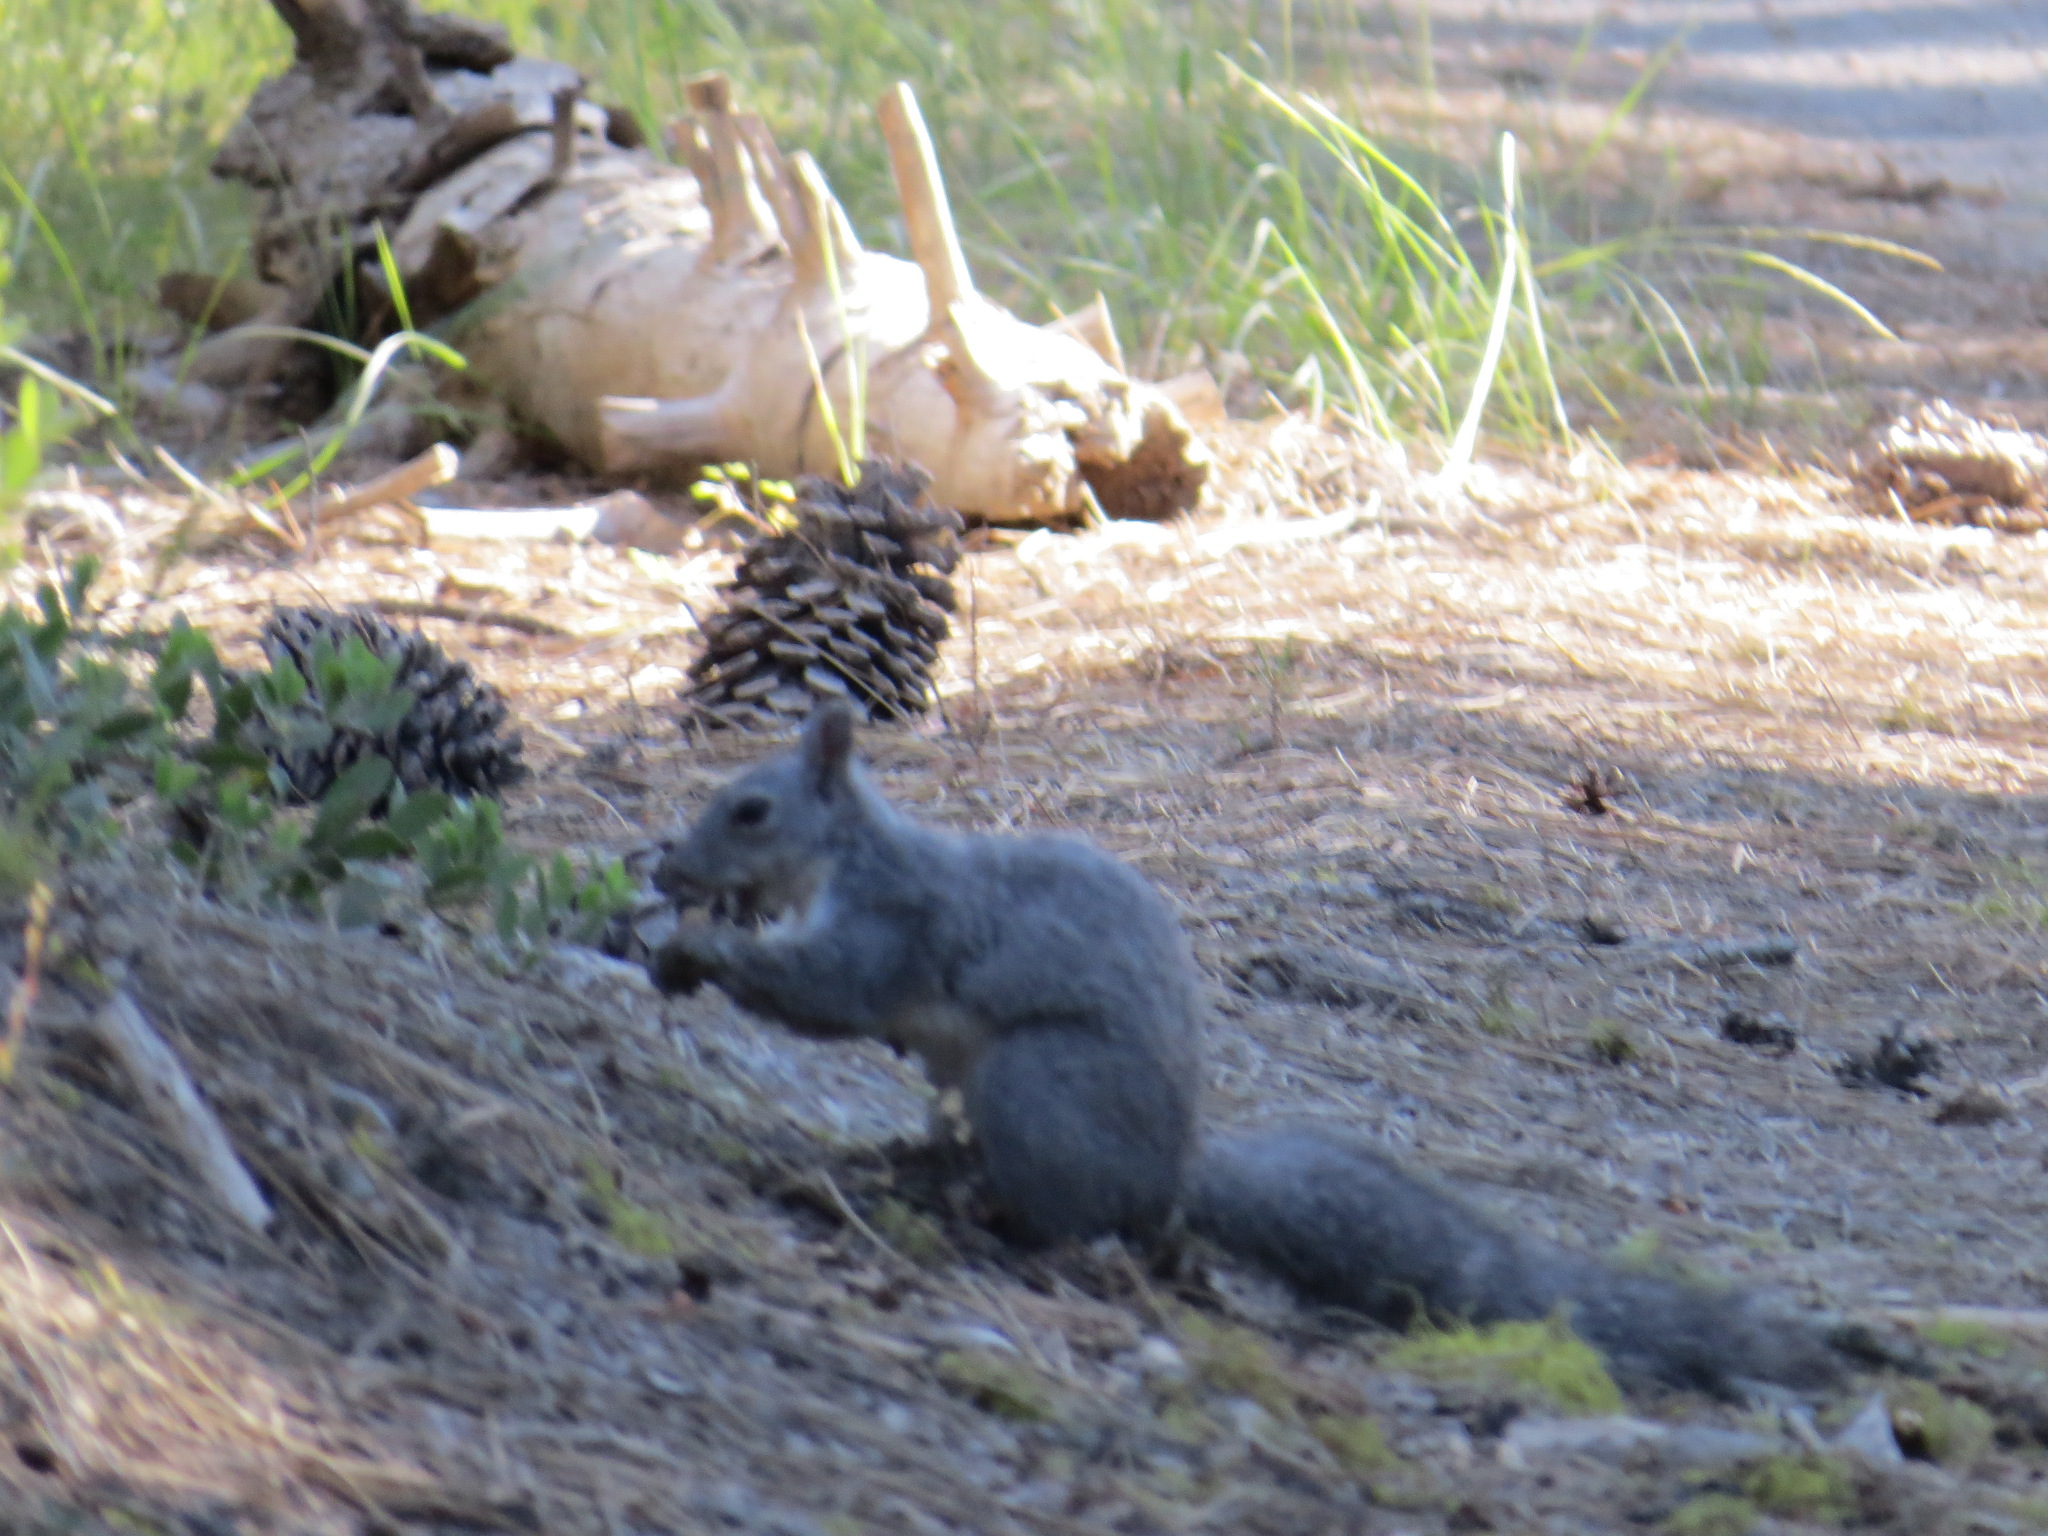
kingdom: Animalia
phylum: Chordata
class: Mammalia
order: Rodentia
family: Sciuridae
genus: Sciurus
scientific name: Sciurus griseus
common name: Western gray squirrel
